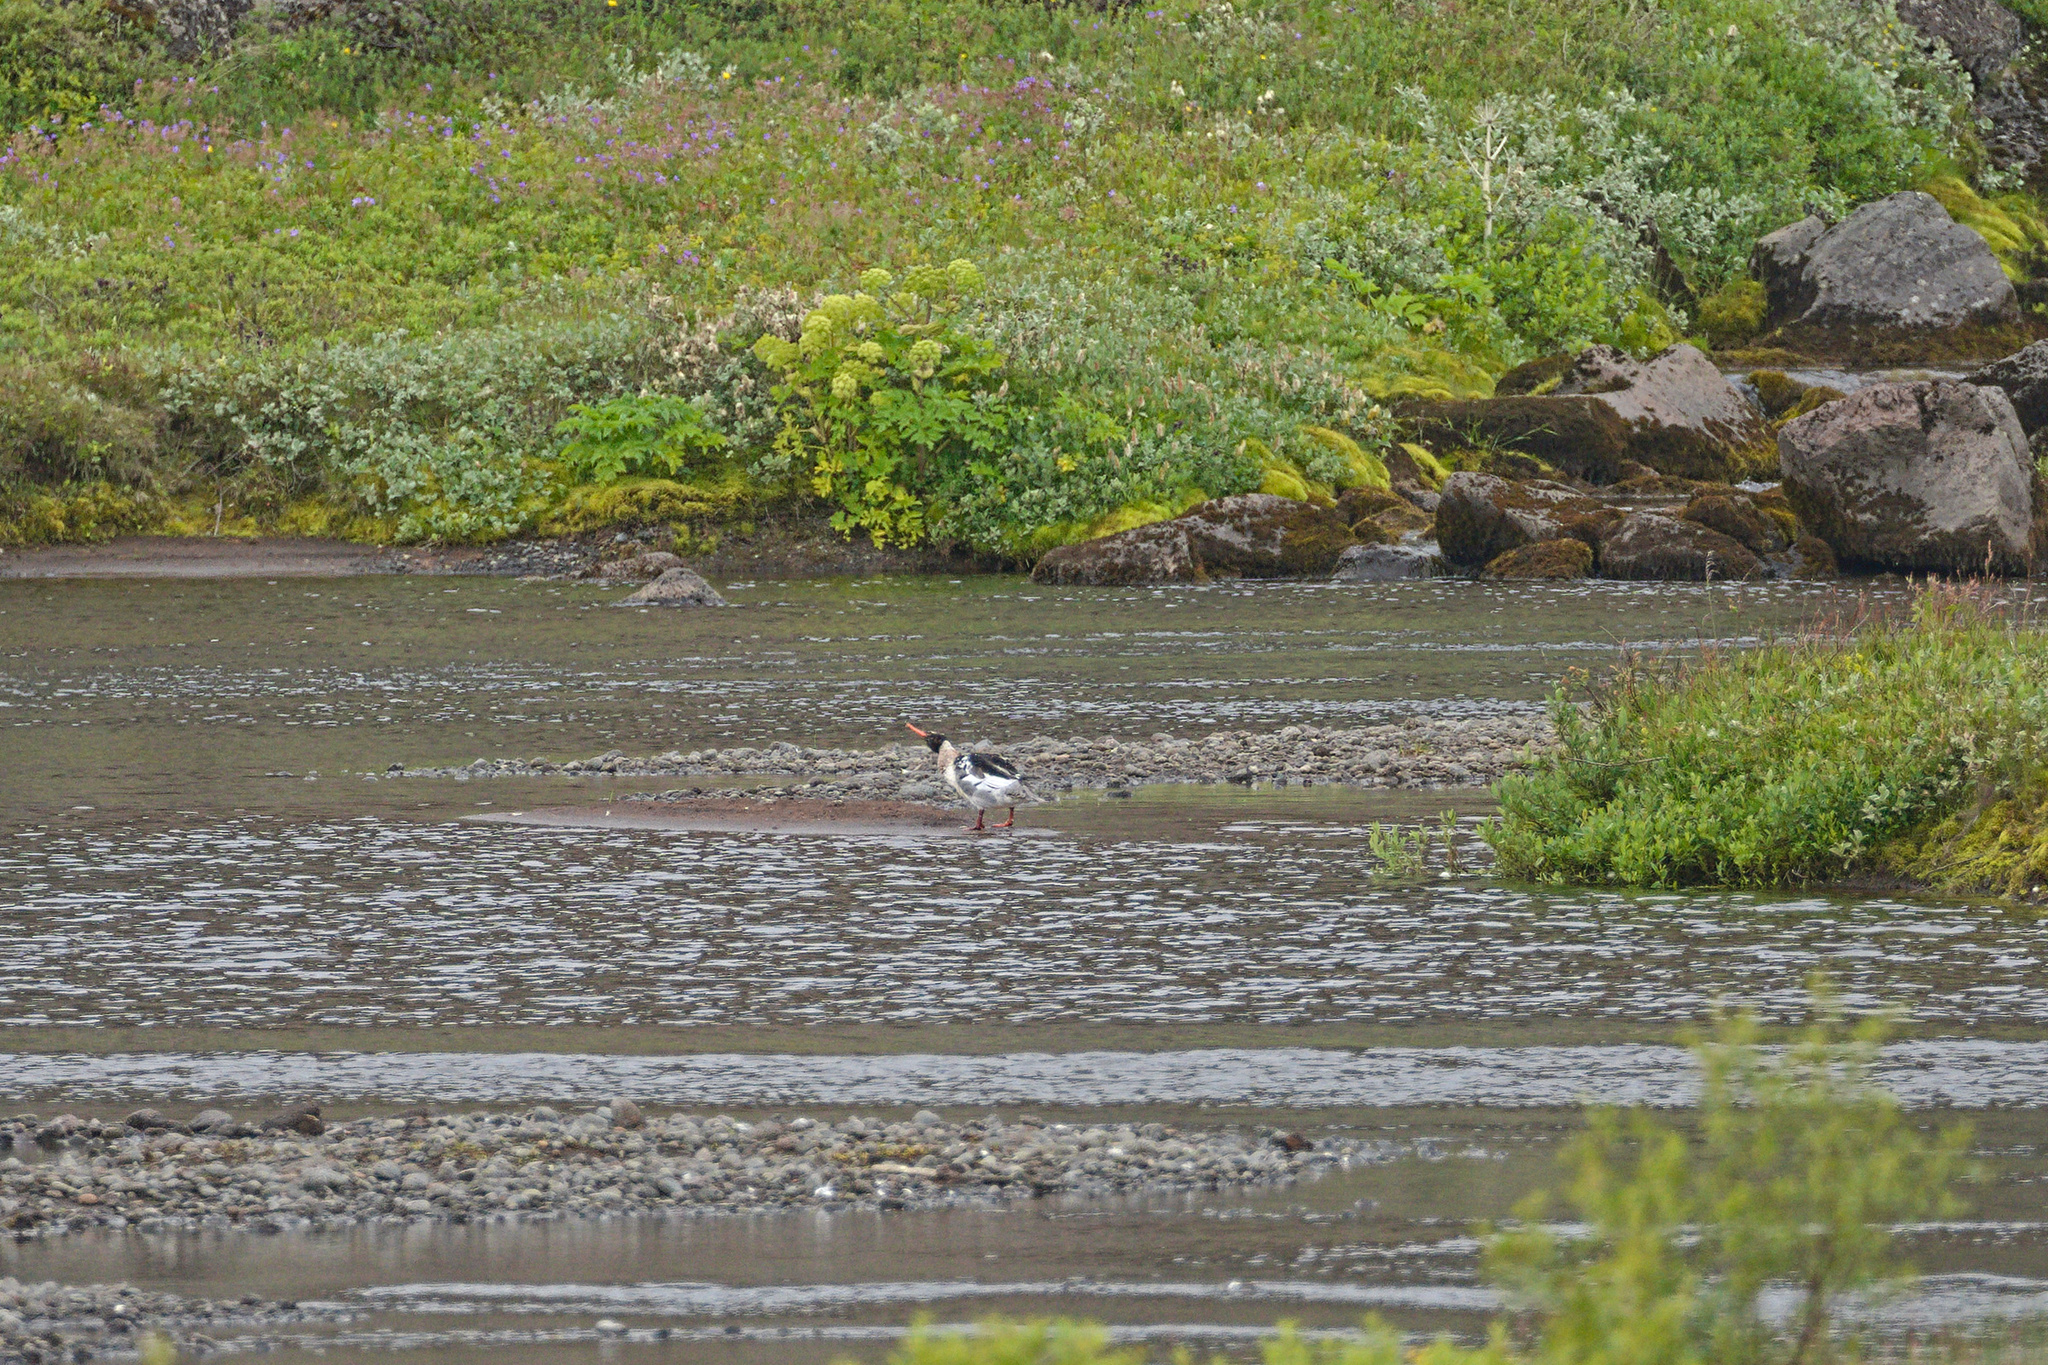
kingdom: Animalia
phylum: Chordata
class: Aves
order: Anseriformes
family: Anatidae
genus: Mergus
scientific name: Mergus serrator
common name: Red-breasted merganser
